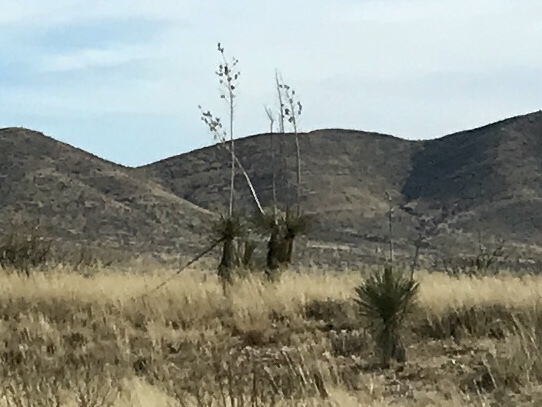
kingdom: Plantae
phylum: Tracheophyta
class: Liliopsida
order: Asparagales
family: Asparagaceae
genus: Yucca
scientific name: Yucca elata
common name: Palmella
